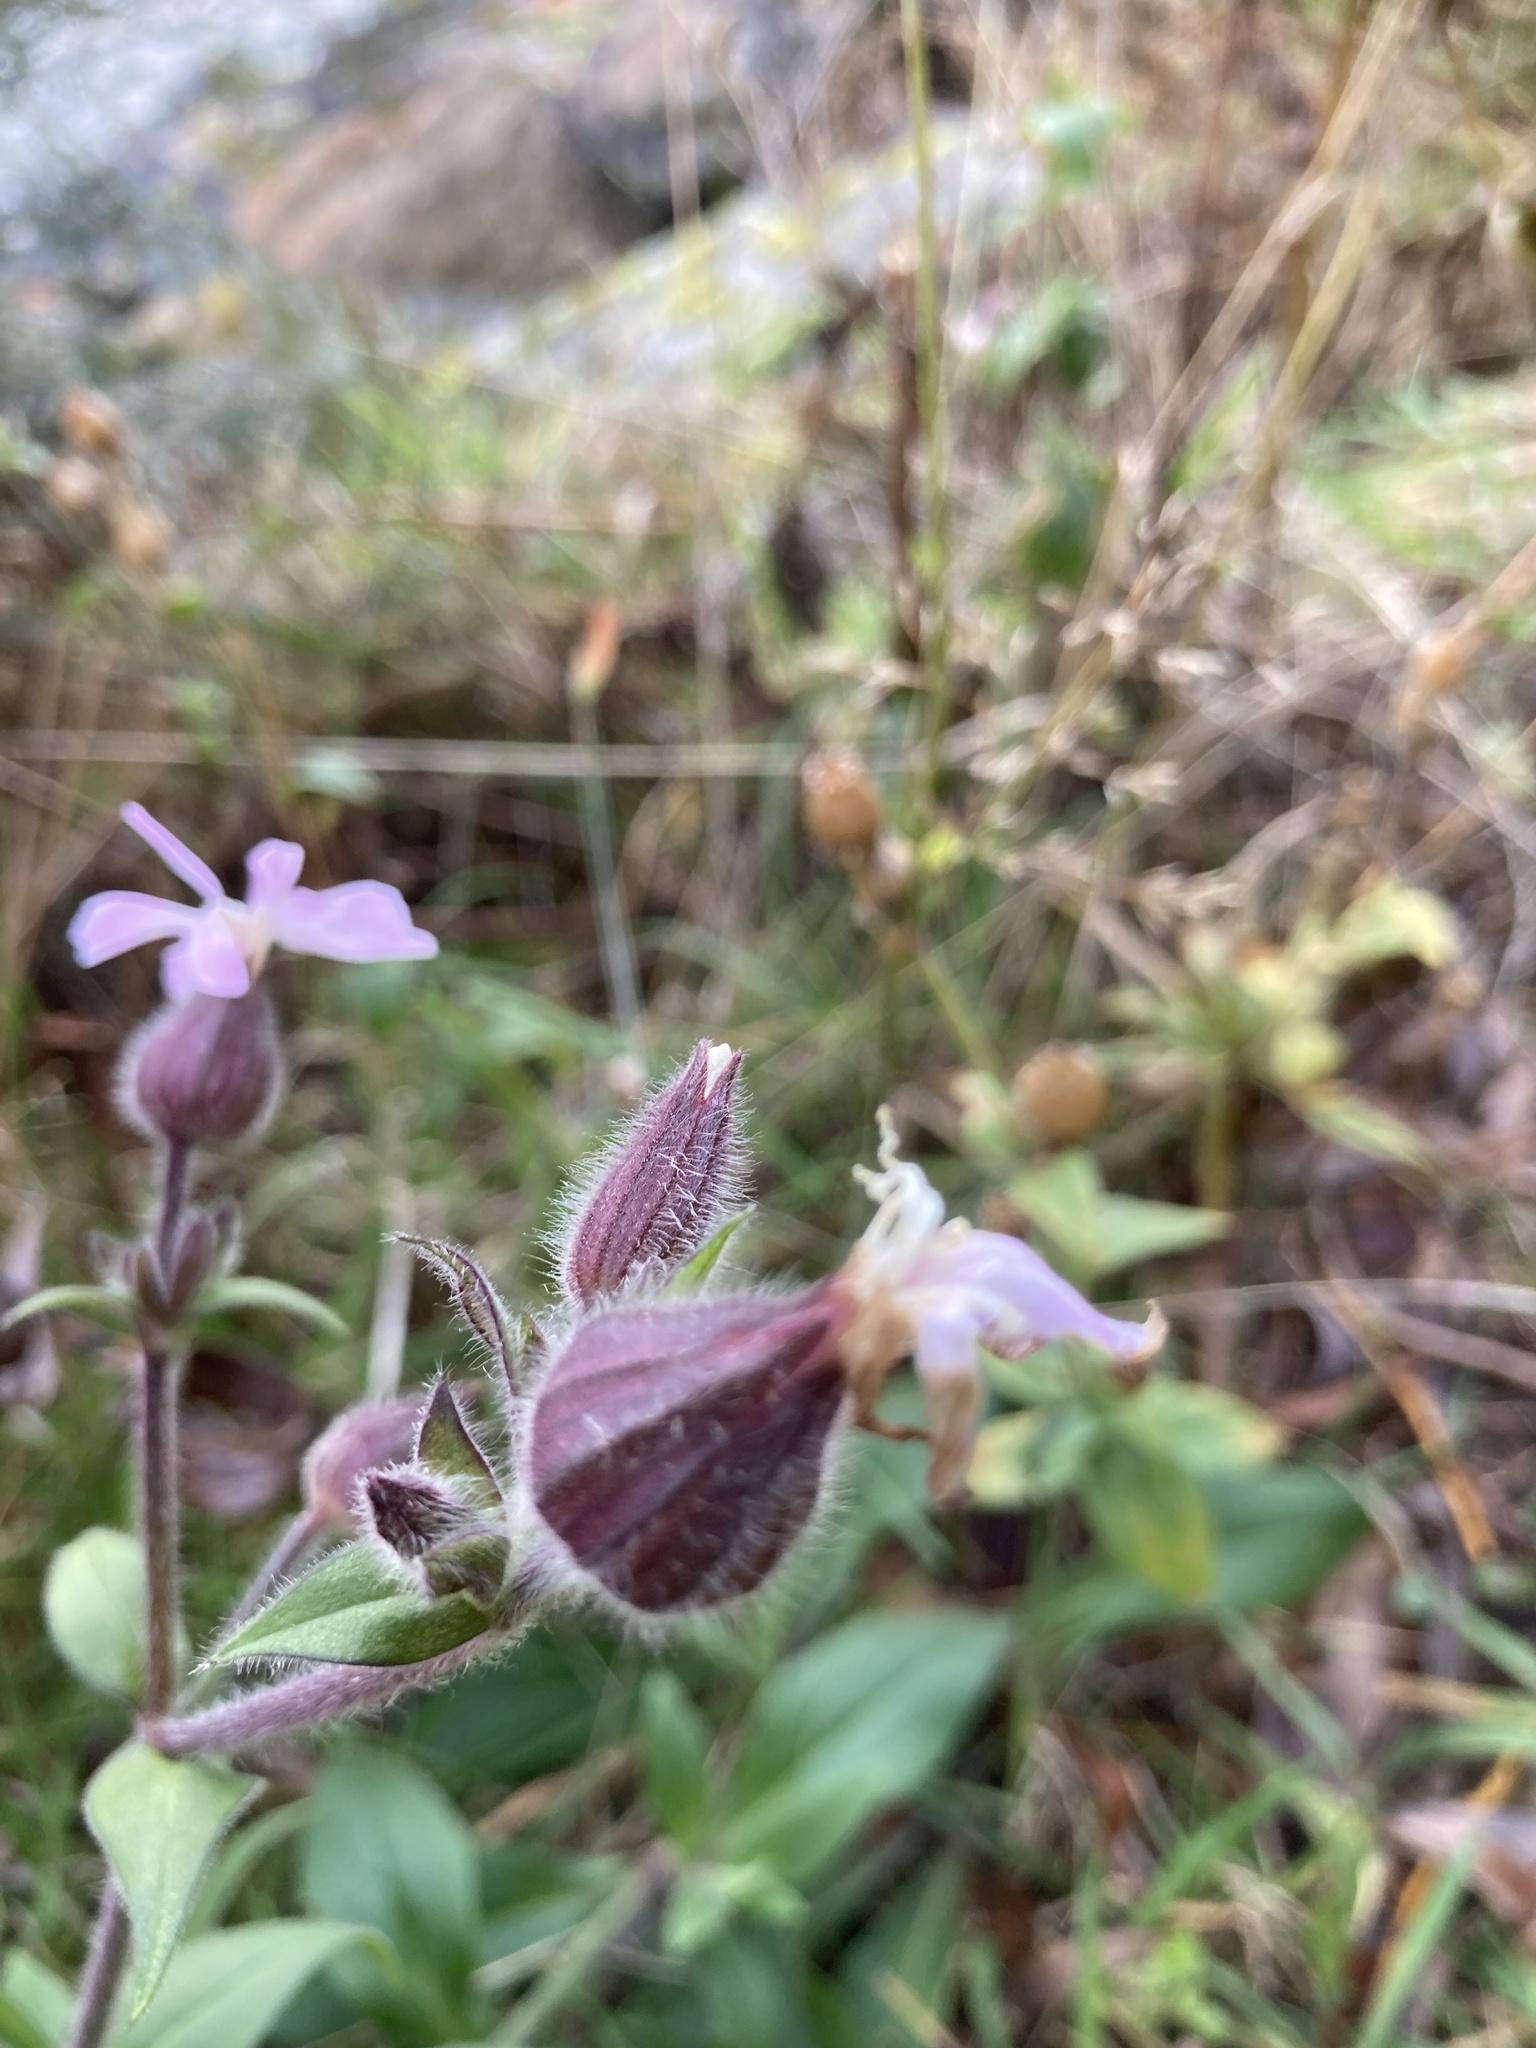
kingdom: Plantae
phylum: Tracheophyta
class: Magnoliopsida
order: Caryophyllales
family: Caryophyllaceae
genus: Silene
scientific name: Silene dioica
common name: Red campion
